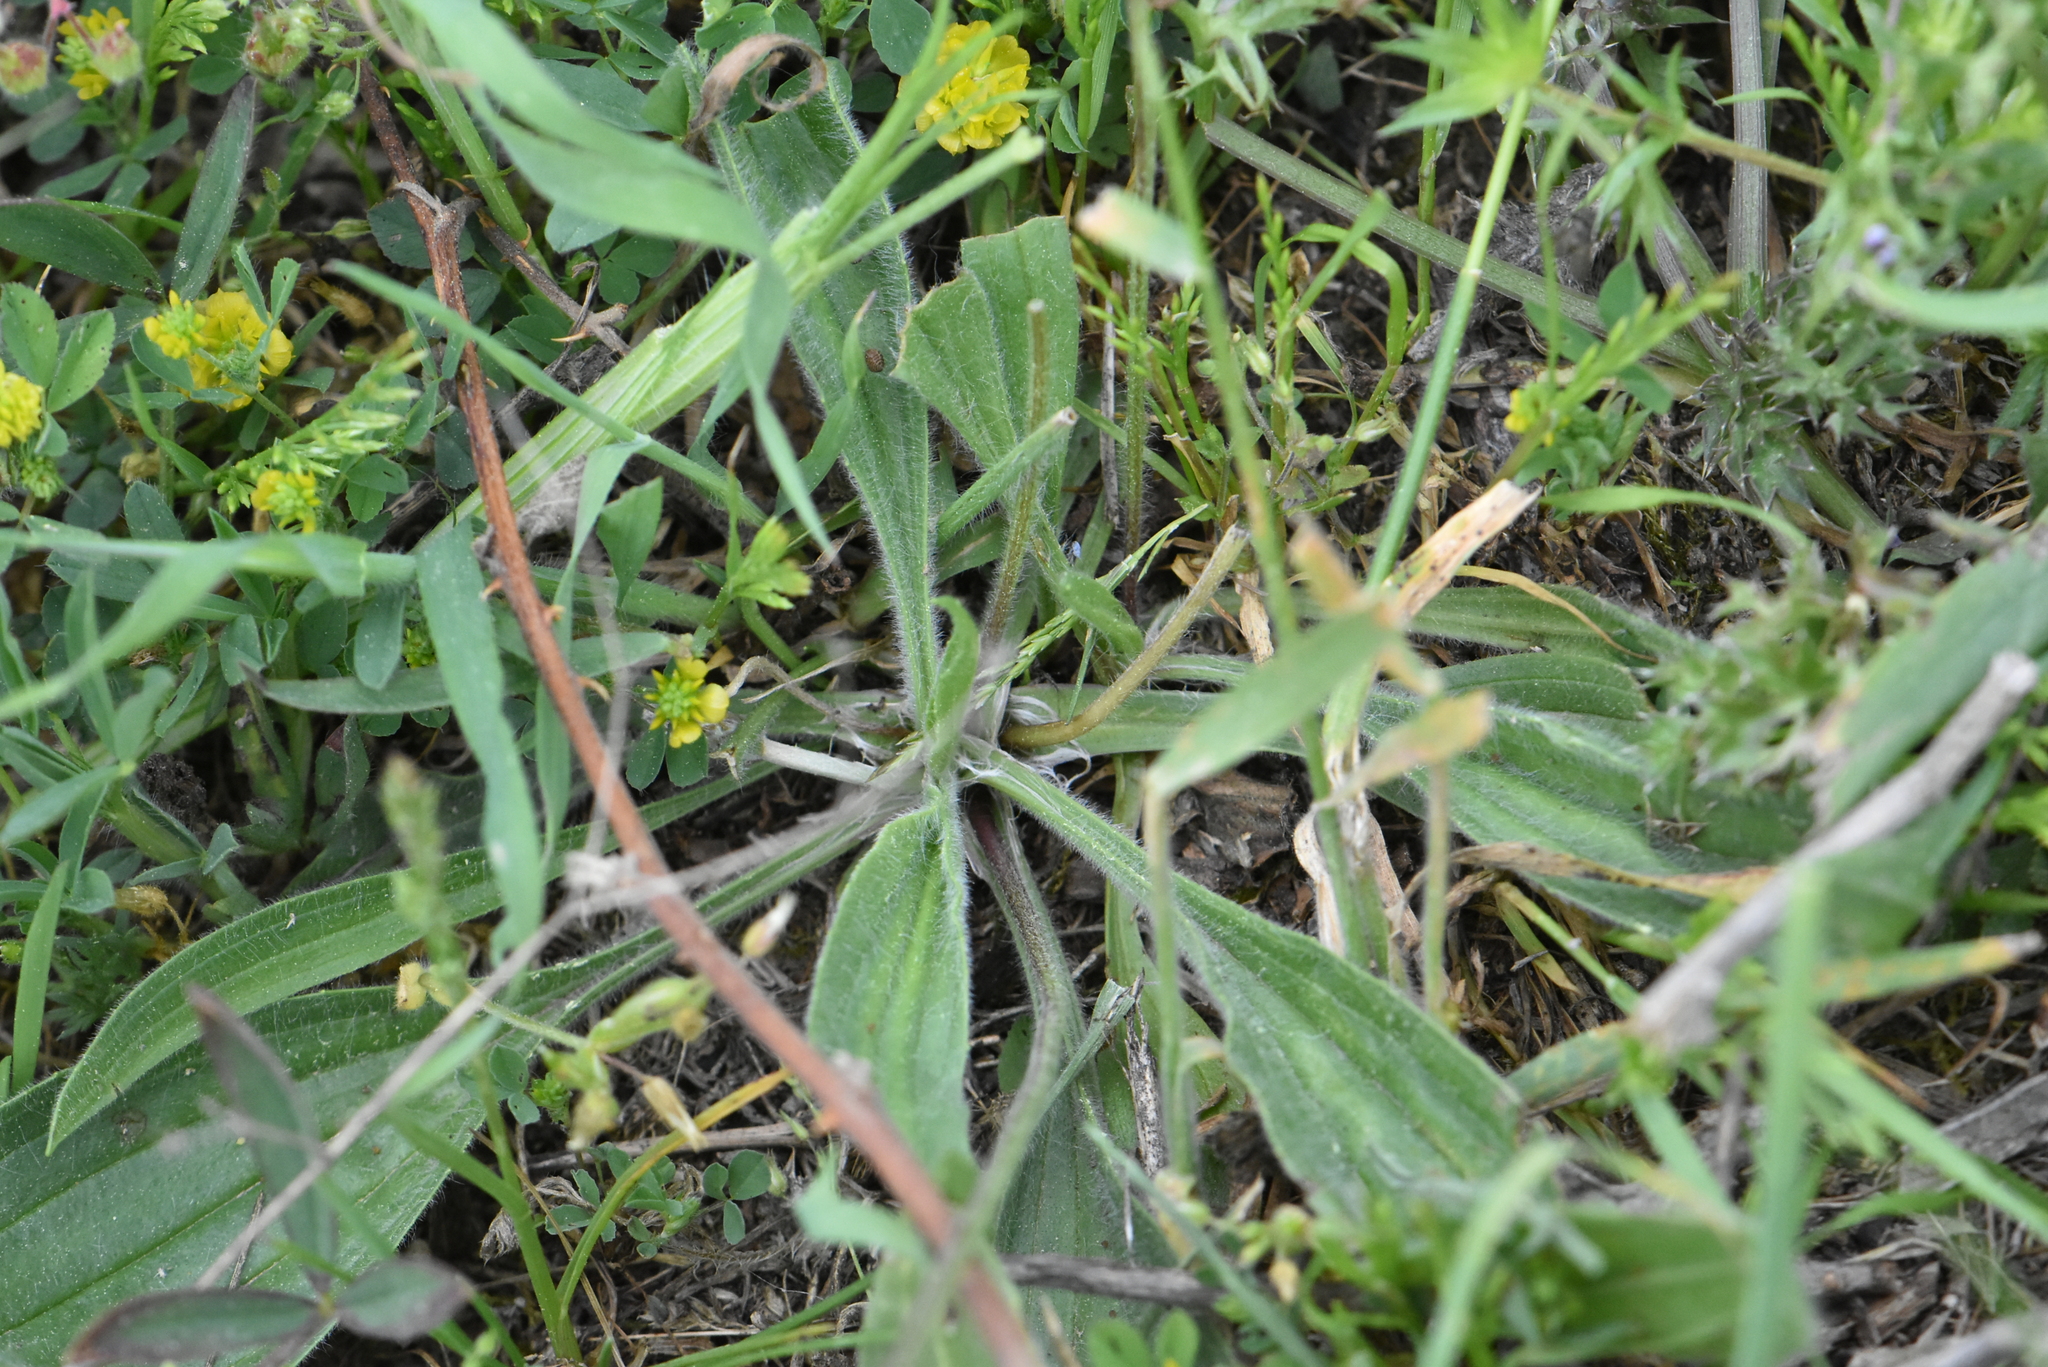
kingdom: Plantae
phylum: Tracheophyta
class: Magnoliopsida
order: Lamiales
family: Plantaginaceae
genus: Plantago
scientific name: Plantago lanceolata
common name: Ribwort plantain
